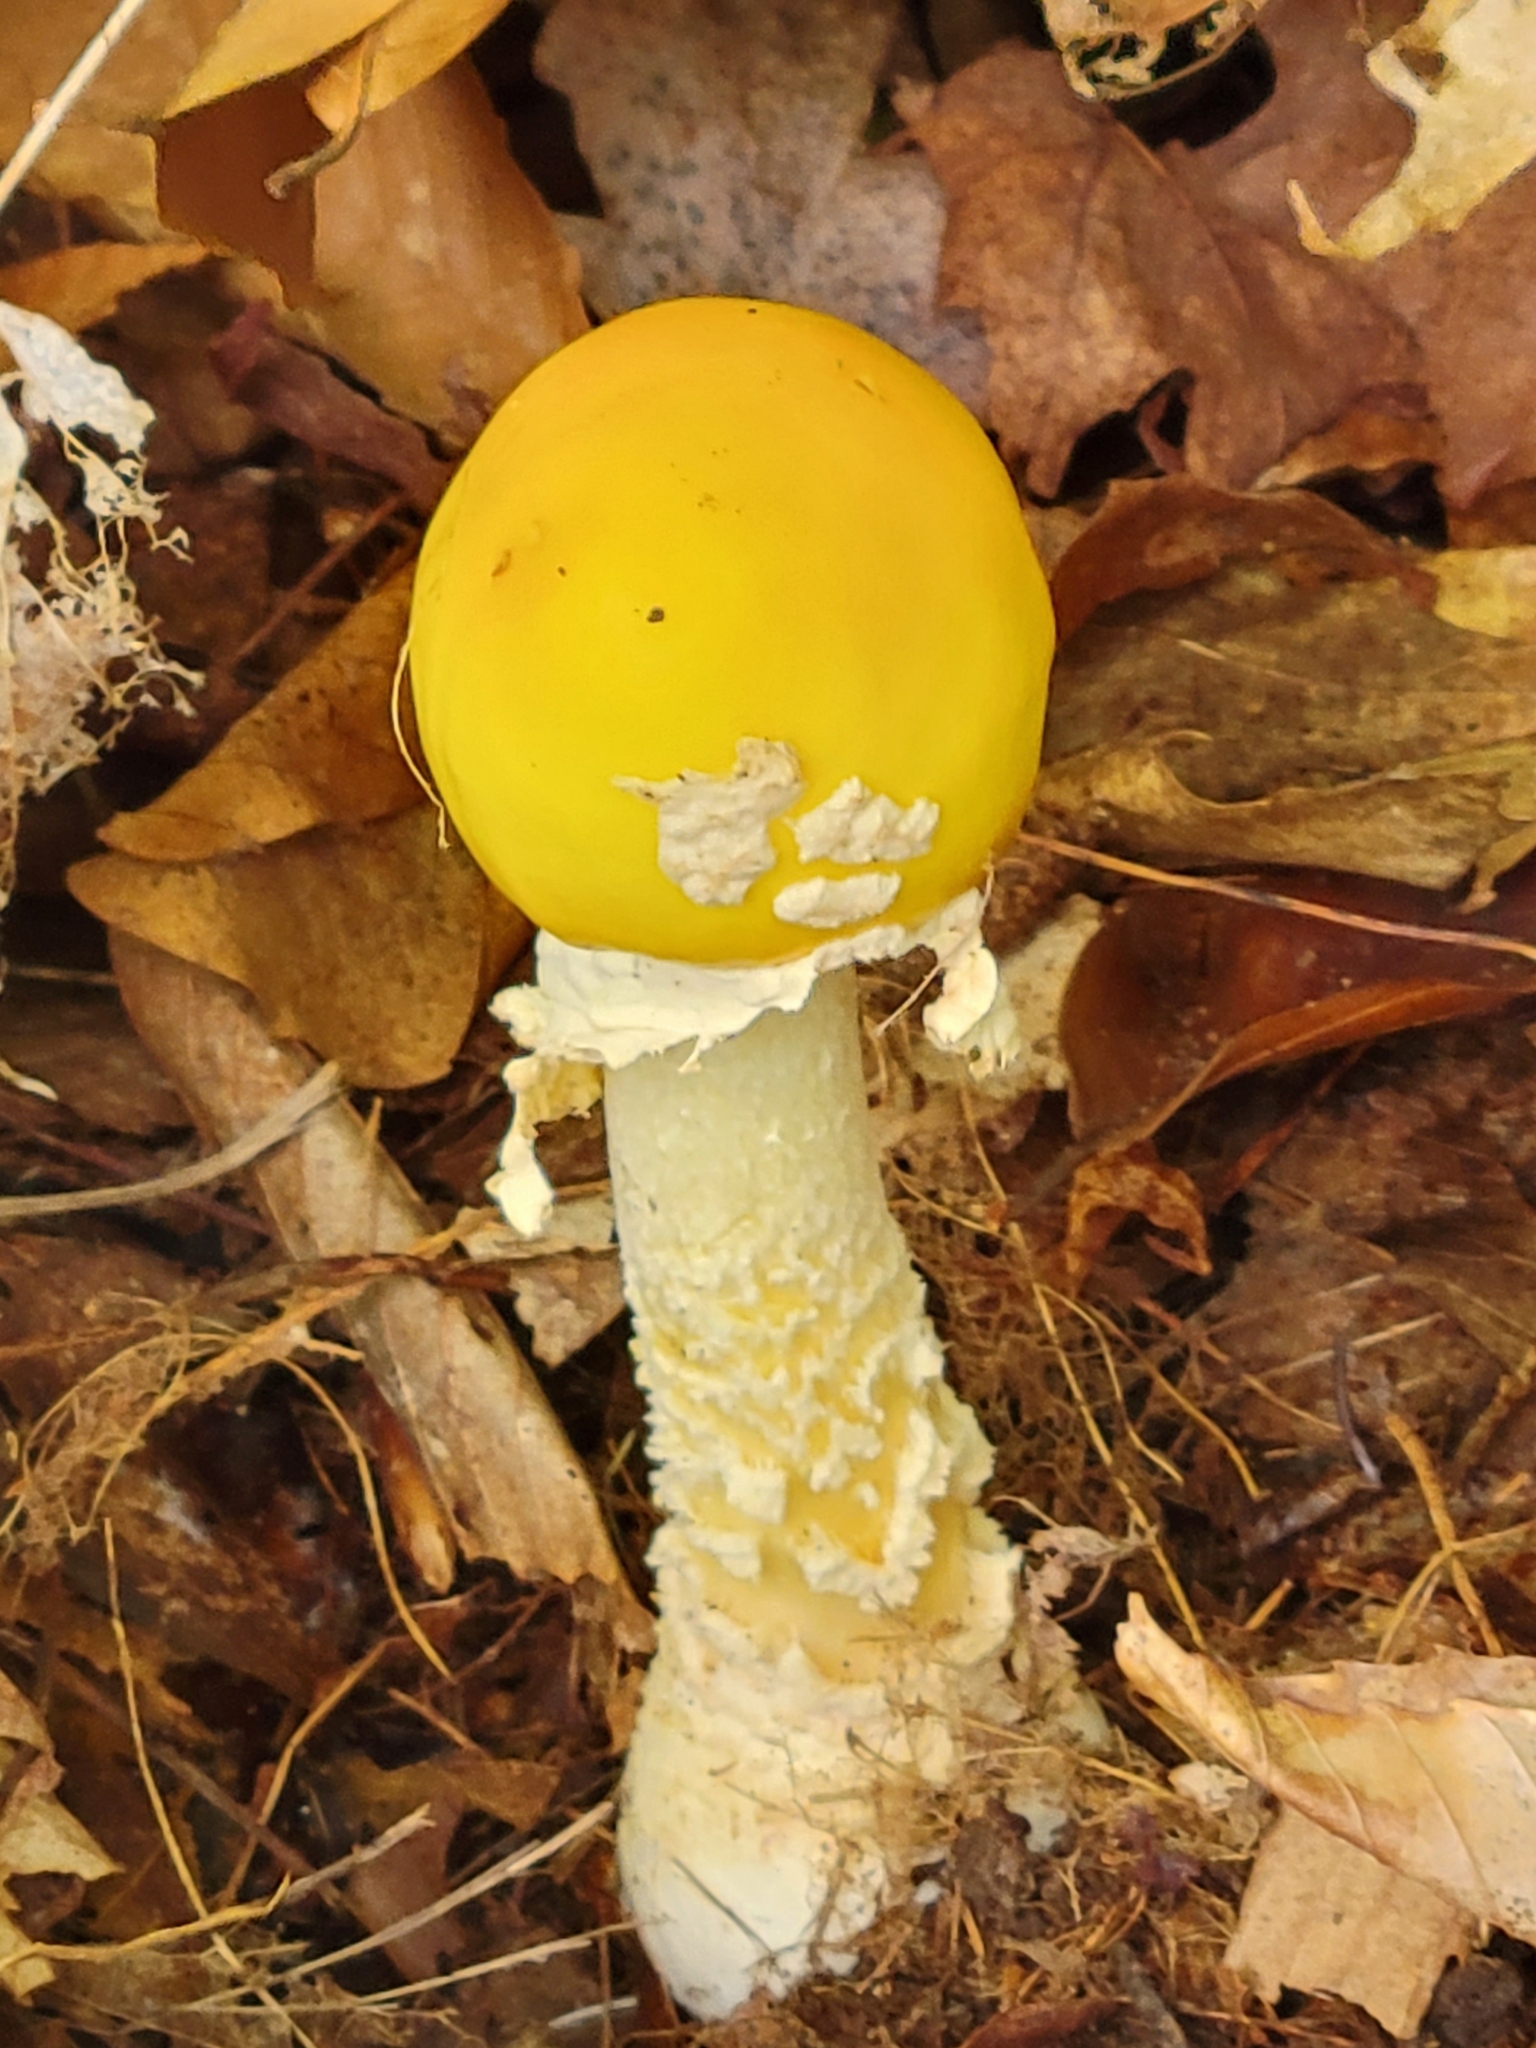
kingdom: Fungi
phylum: Basidiomycota
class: Agaricomycetes
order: Agaricales
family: Amanitaceae
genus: Amanita
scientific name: Amanita muscaria
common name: Fly agaric
